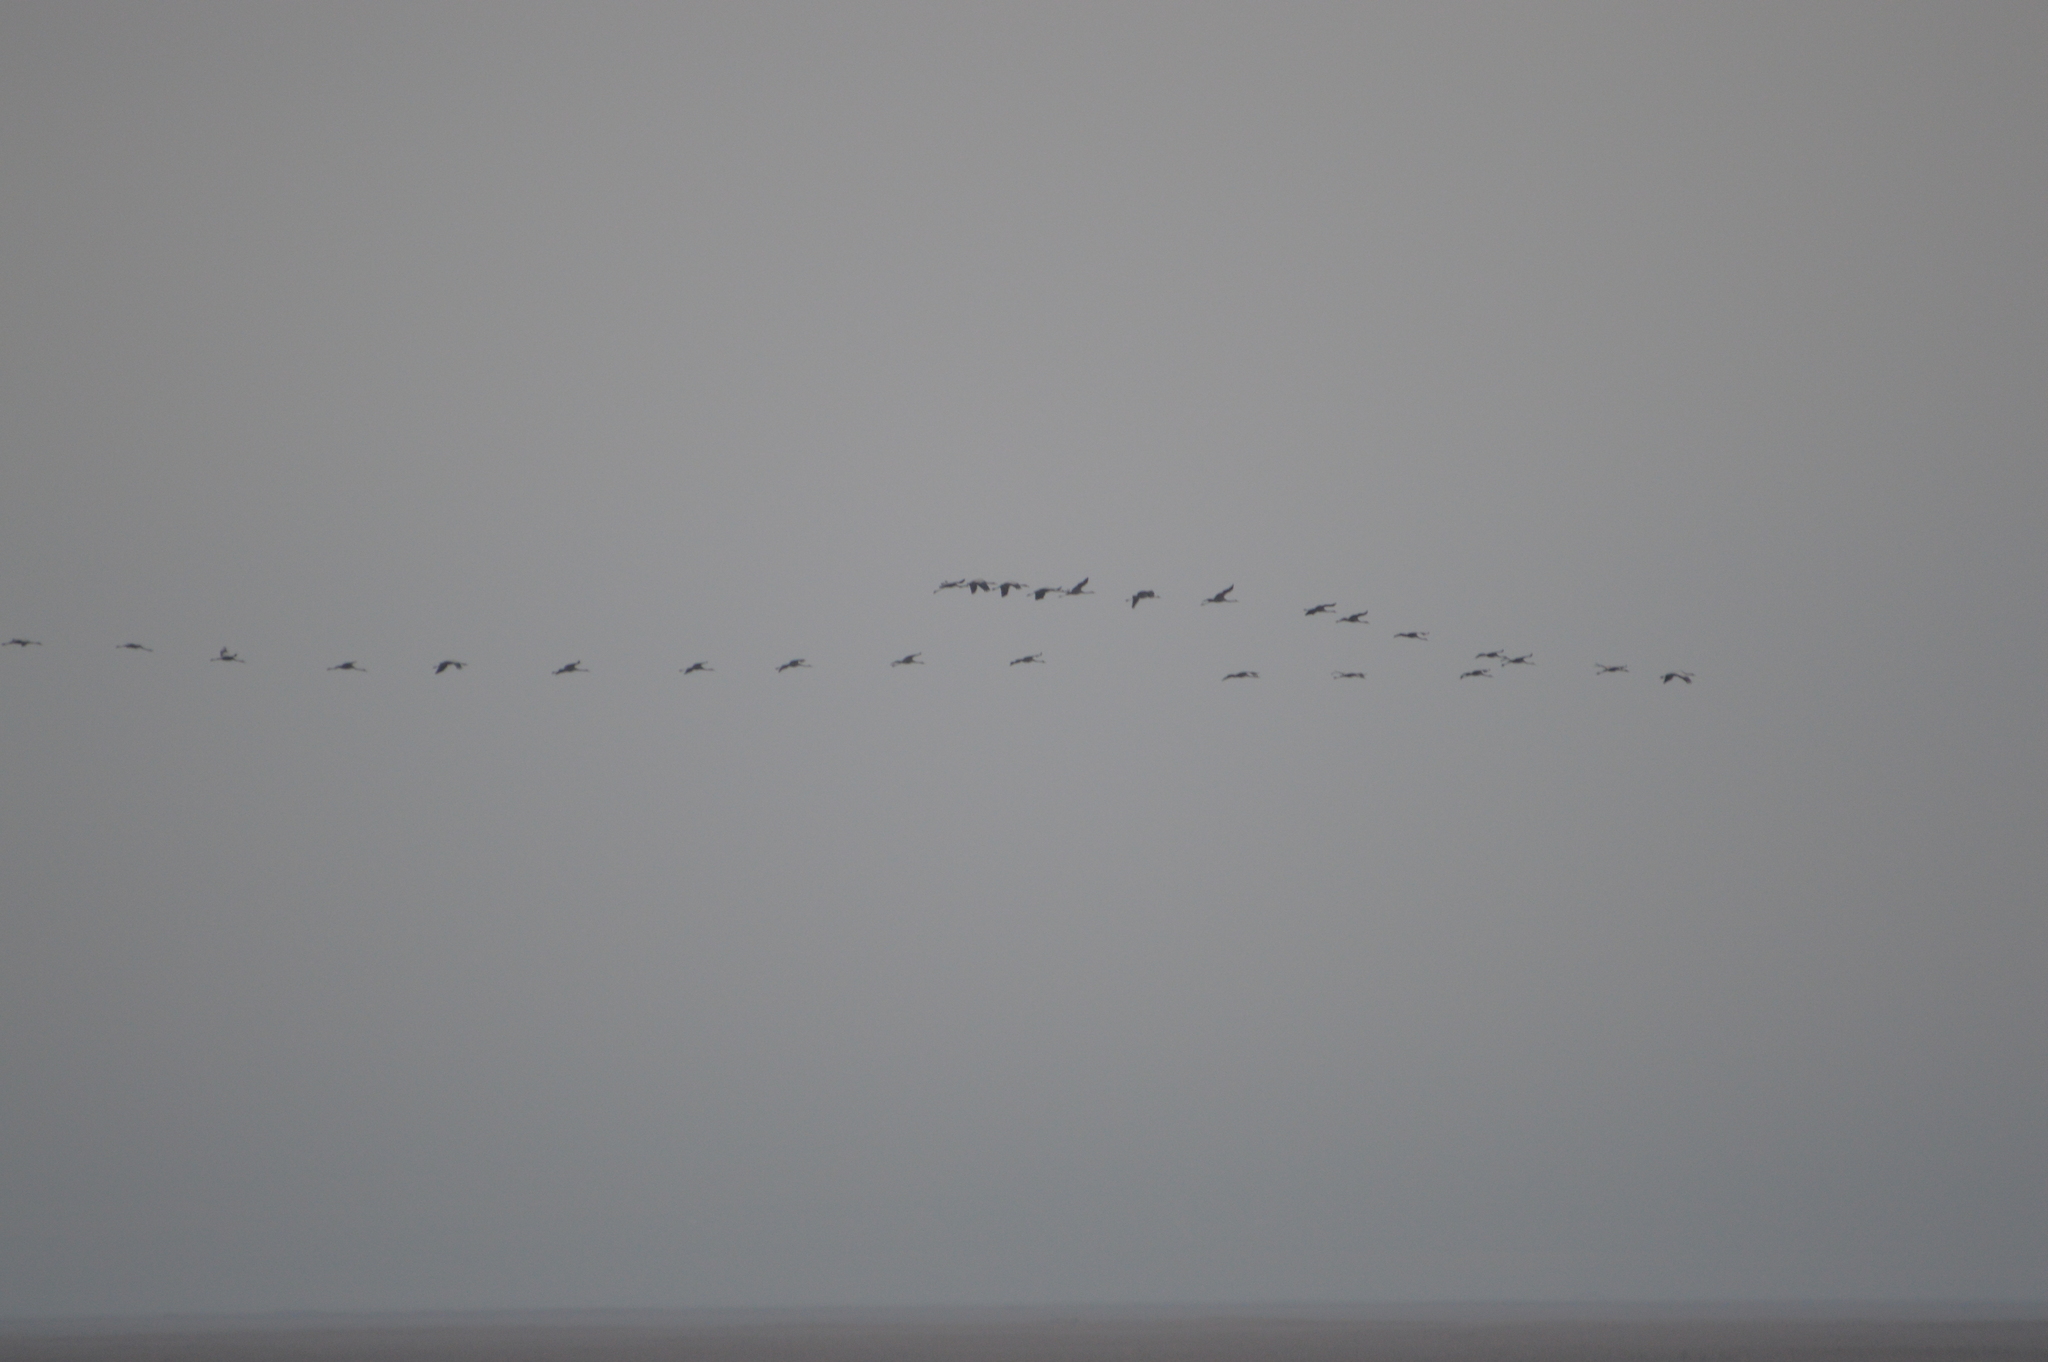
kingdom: Animalia
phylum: Chordata
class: Aves
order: Gruiformes
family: Gruidae
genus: Grus
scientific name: Grus grus
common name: Common crane
